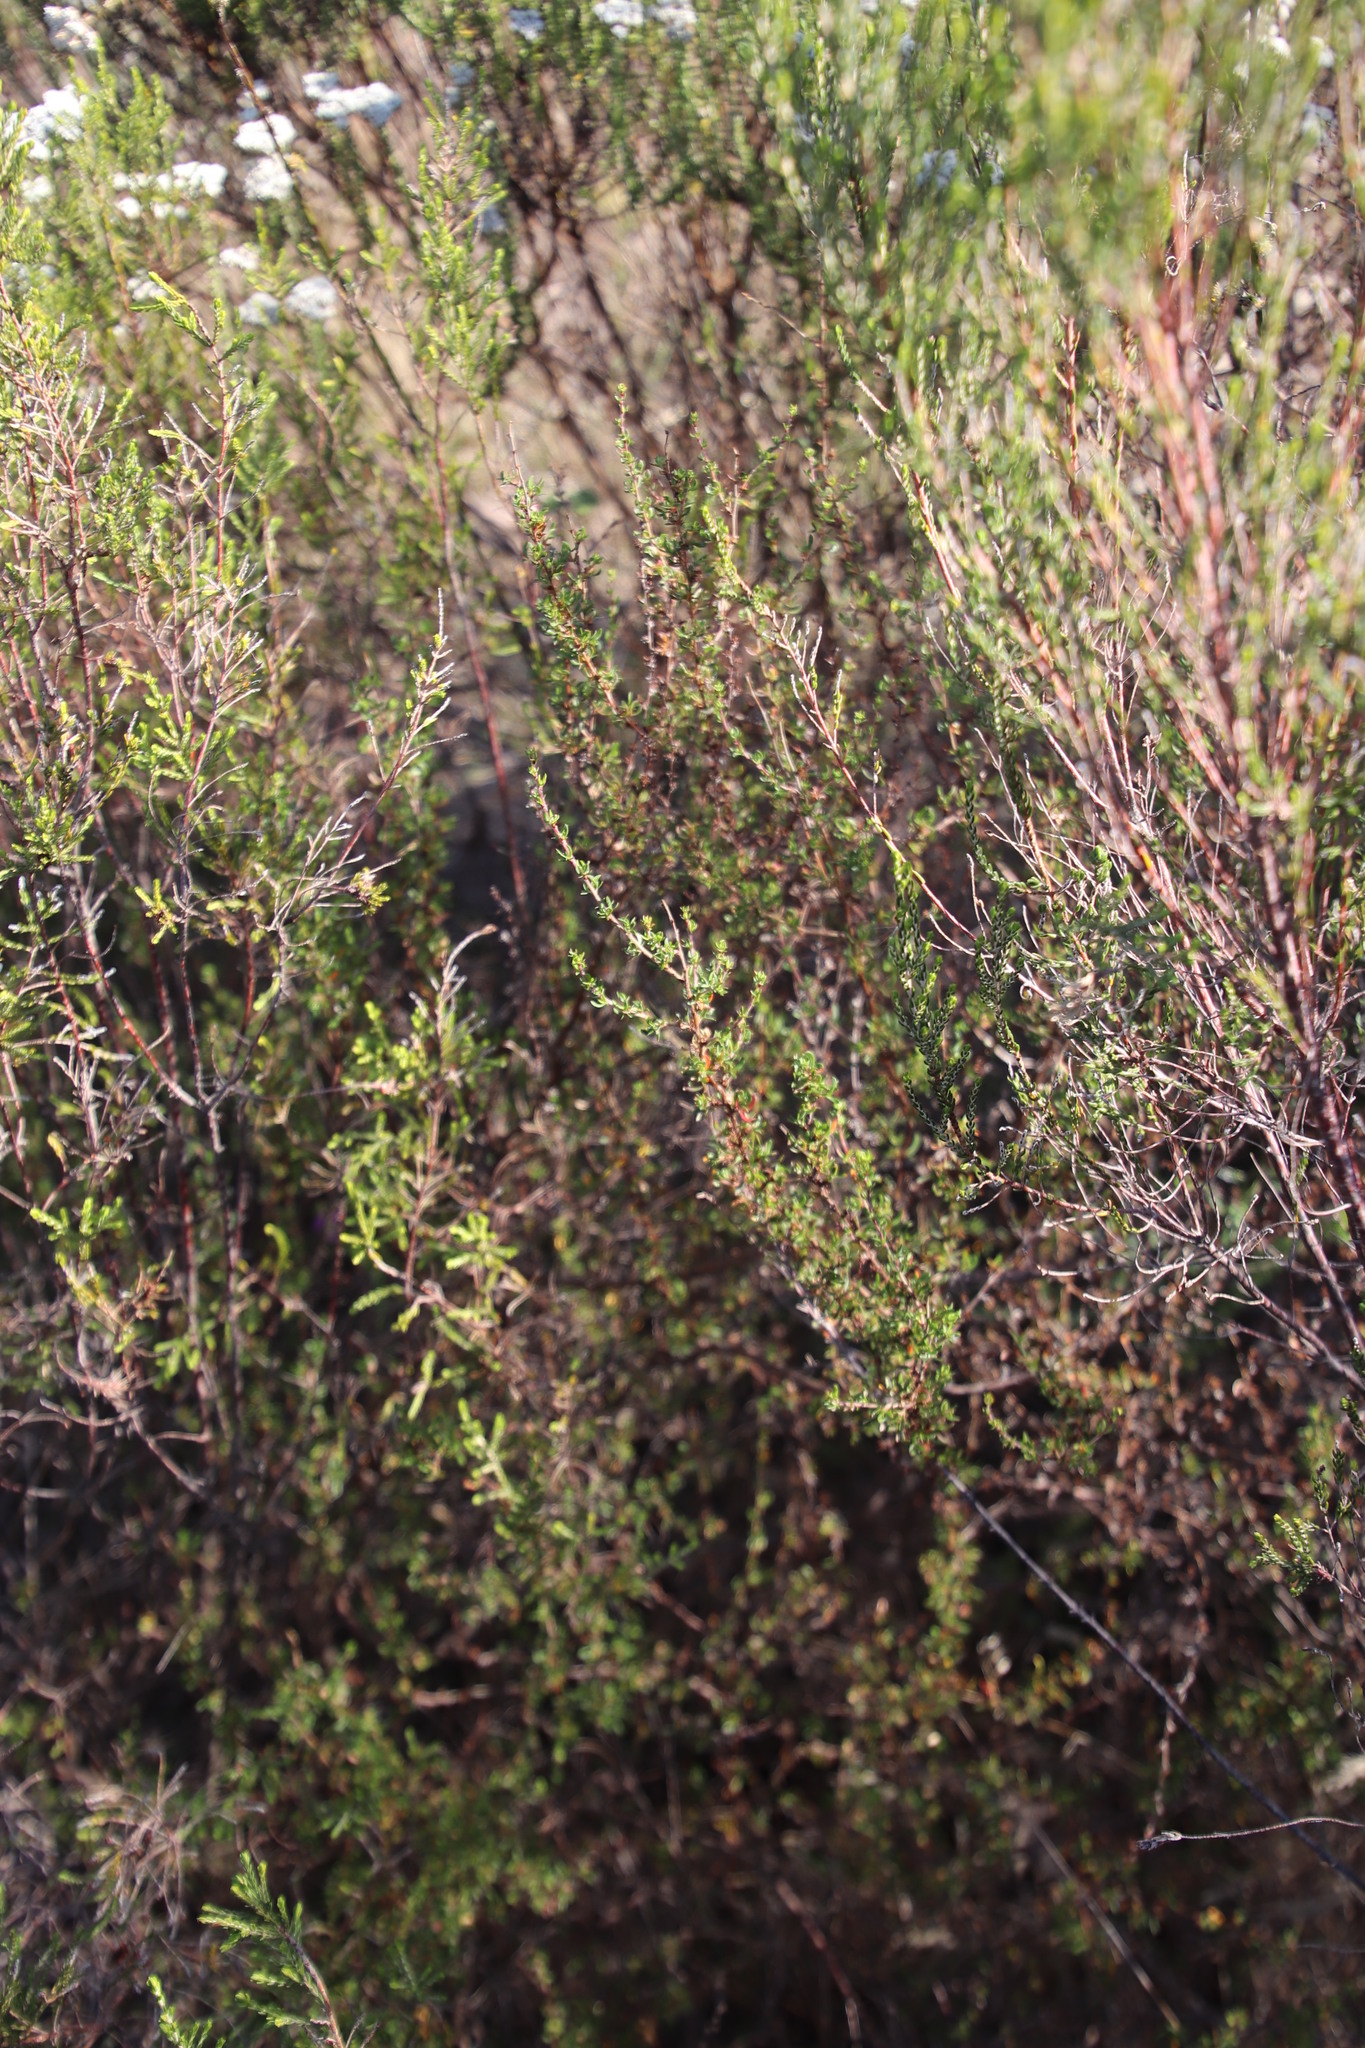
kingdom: Plantae
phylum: Tracheophyta
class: Magnoliopsida
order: Rosales
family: Rosaceae
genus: Cliffortia
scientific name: Cliffortia falcata
